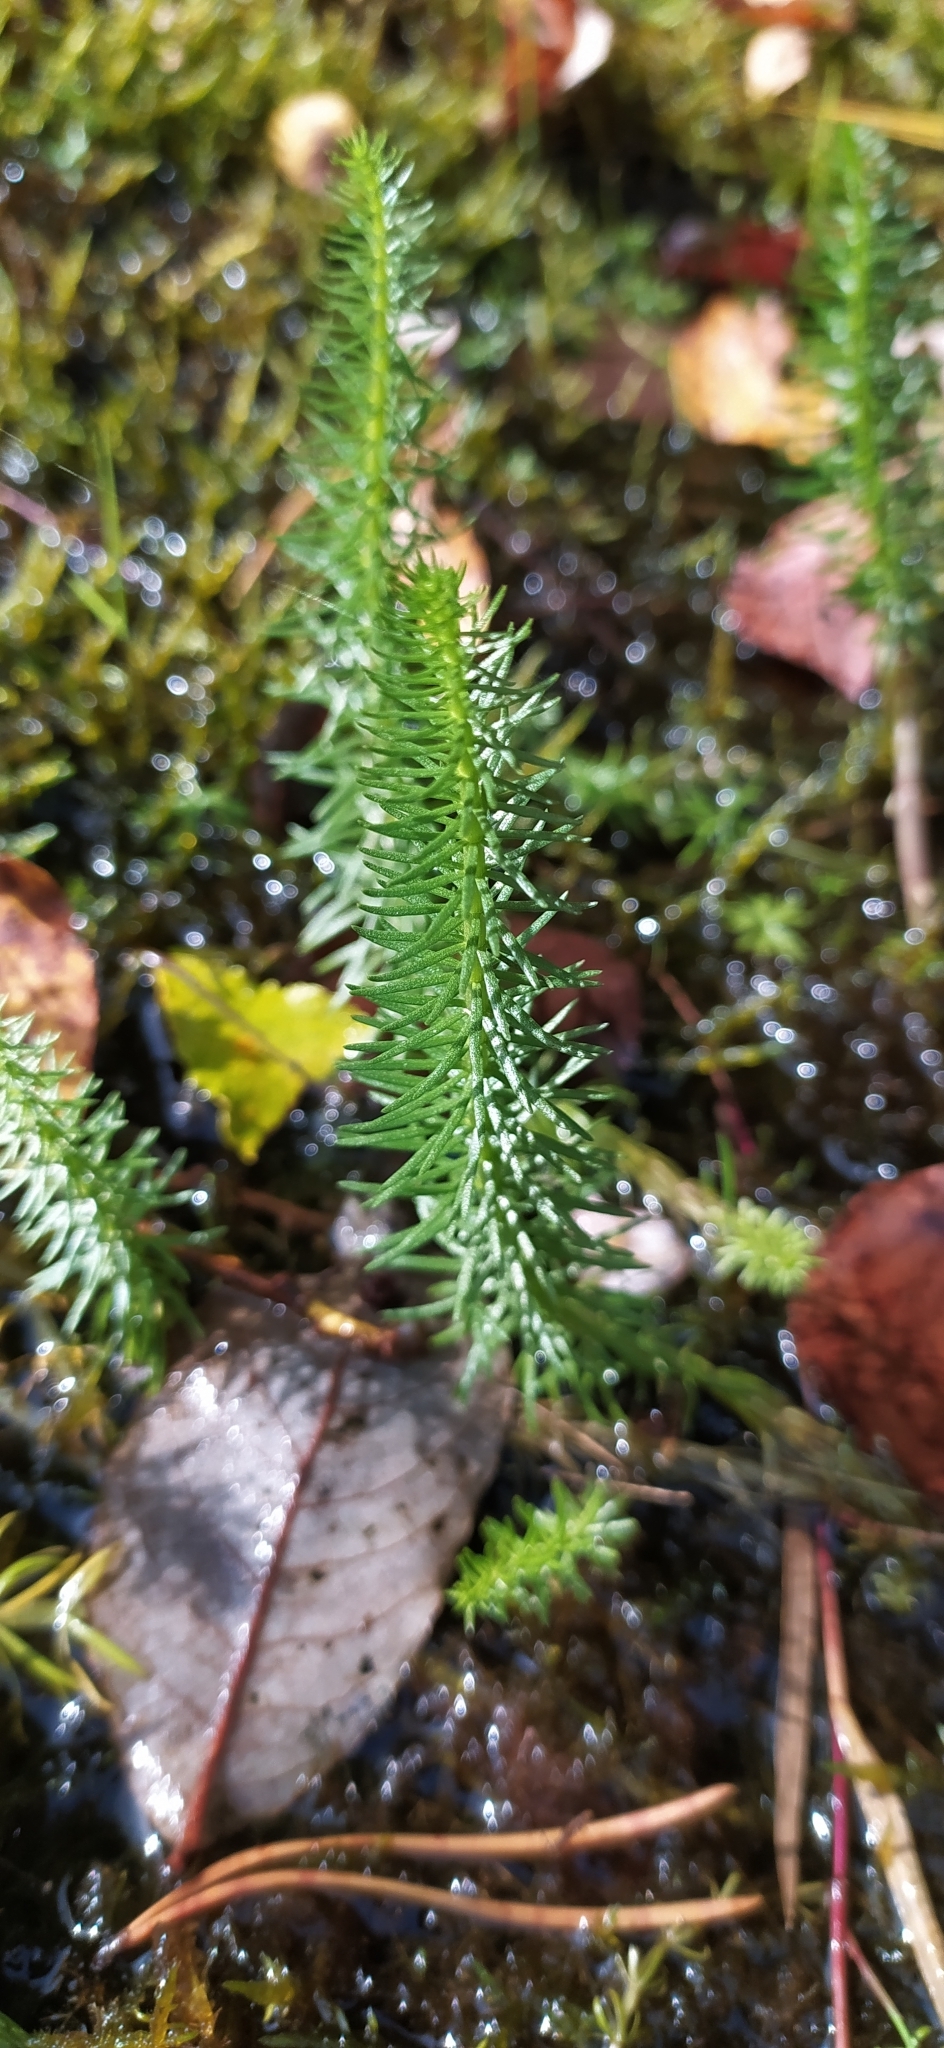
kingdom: Plantae
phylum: Tracheophyta
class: Magnoliopsida
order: Lamiales
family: Plantaginaceae
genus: Hippuris
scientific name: Hippuris vulgaris
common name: Mare's-tail
